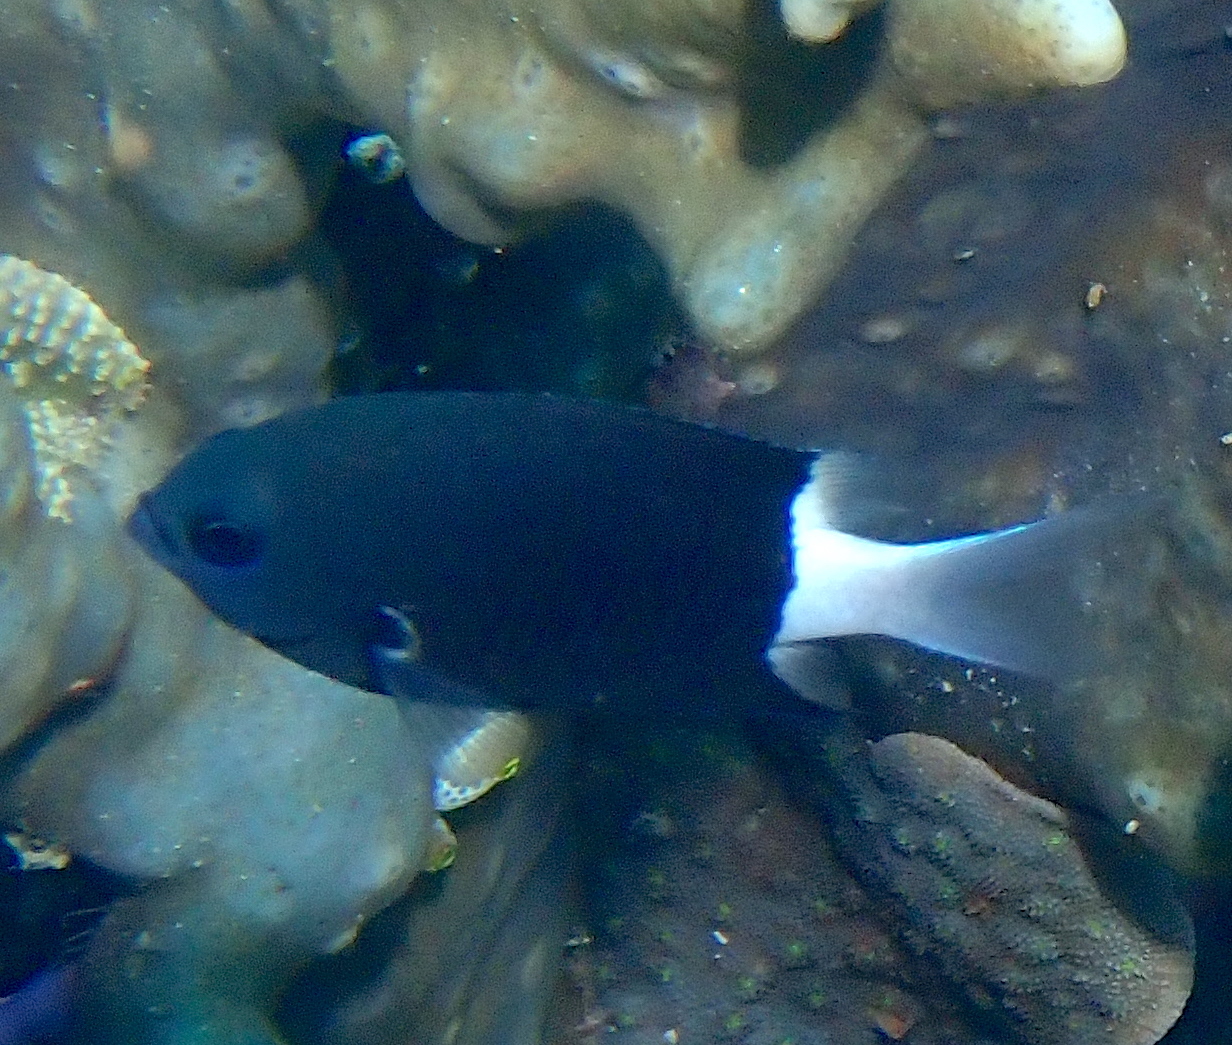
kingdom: Animalia
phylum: Chordata
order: Perciformes
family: Pomacentridae
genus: Pycnochromis
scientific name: Pycnochromis margaritifer
